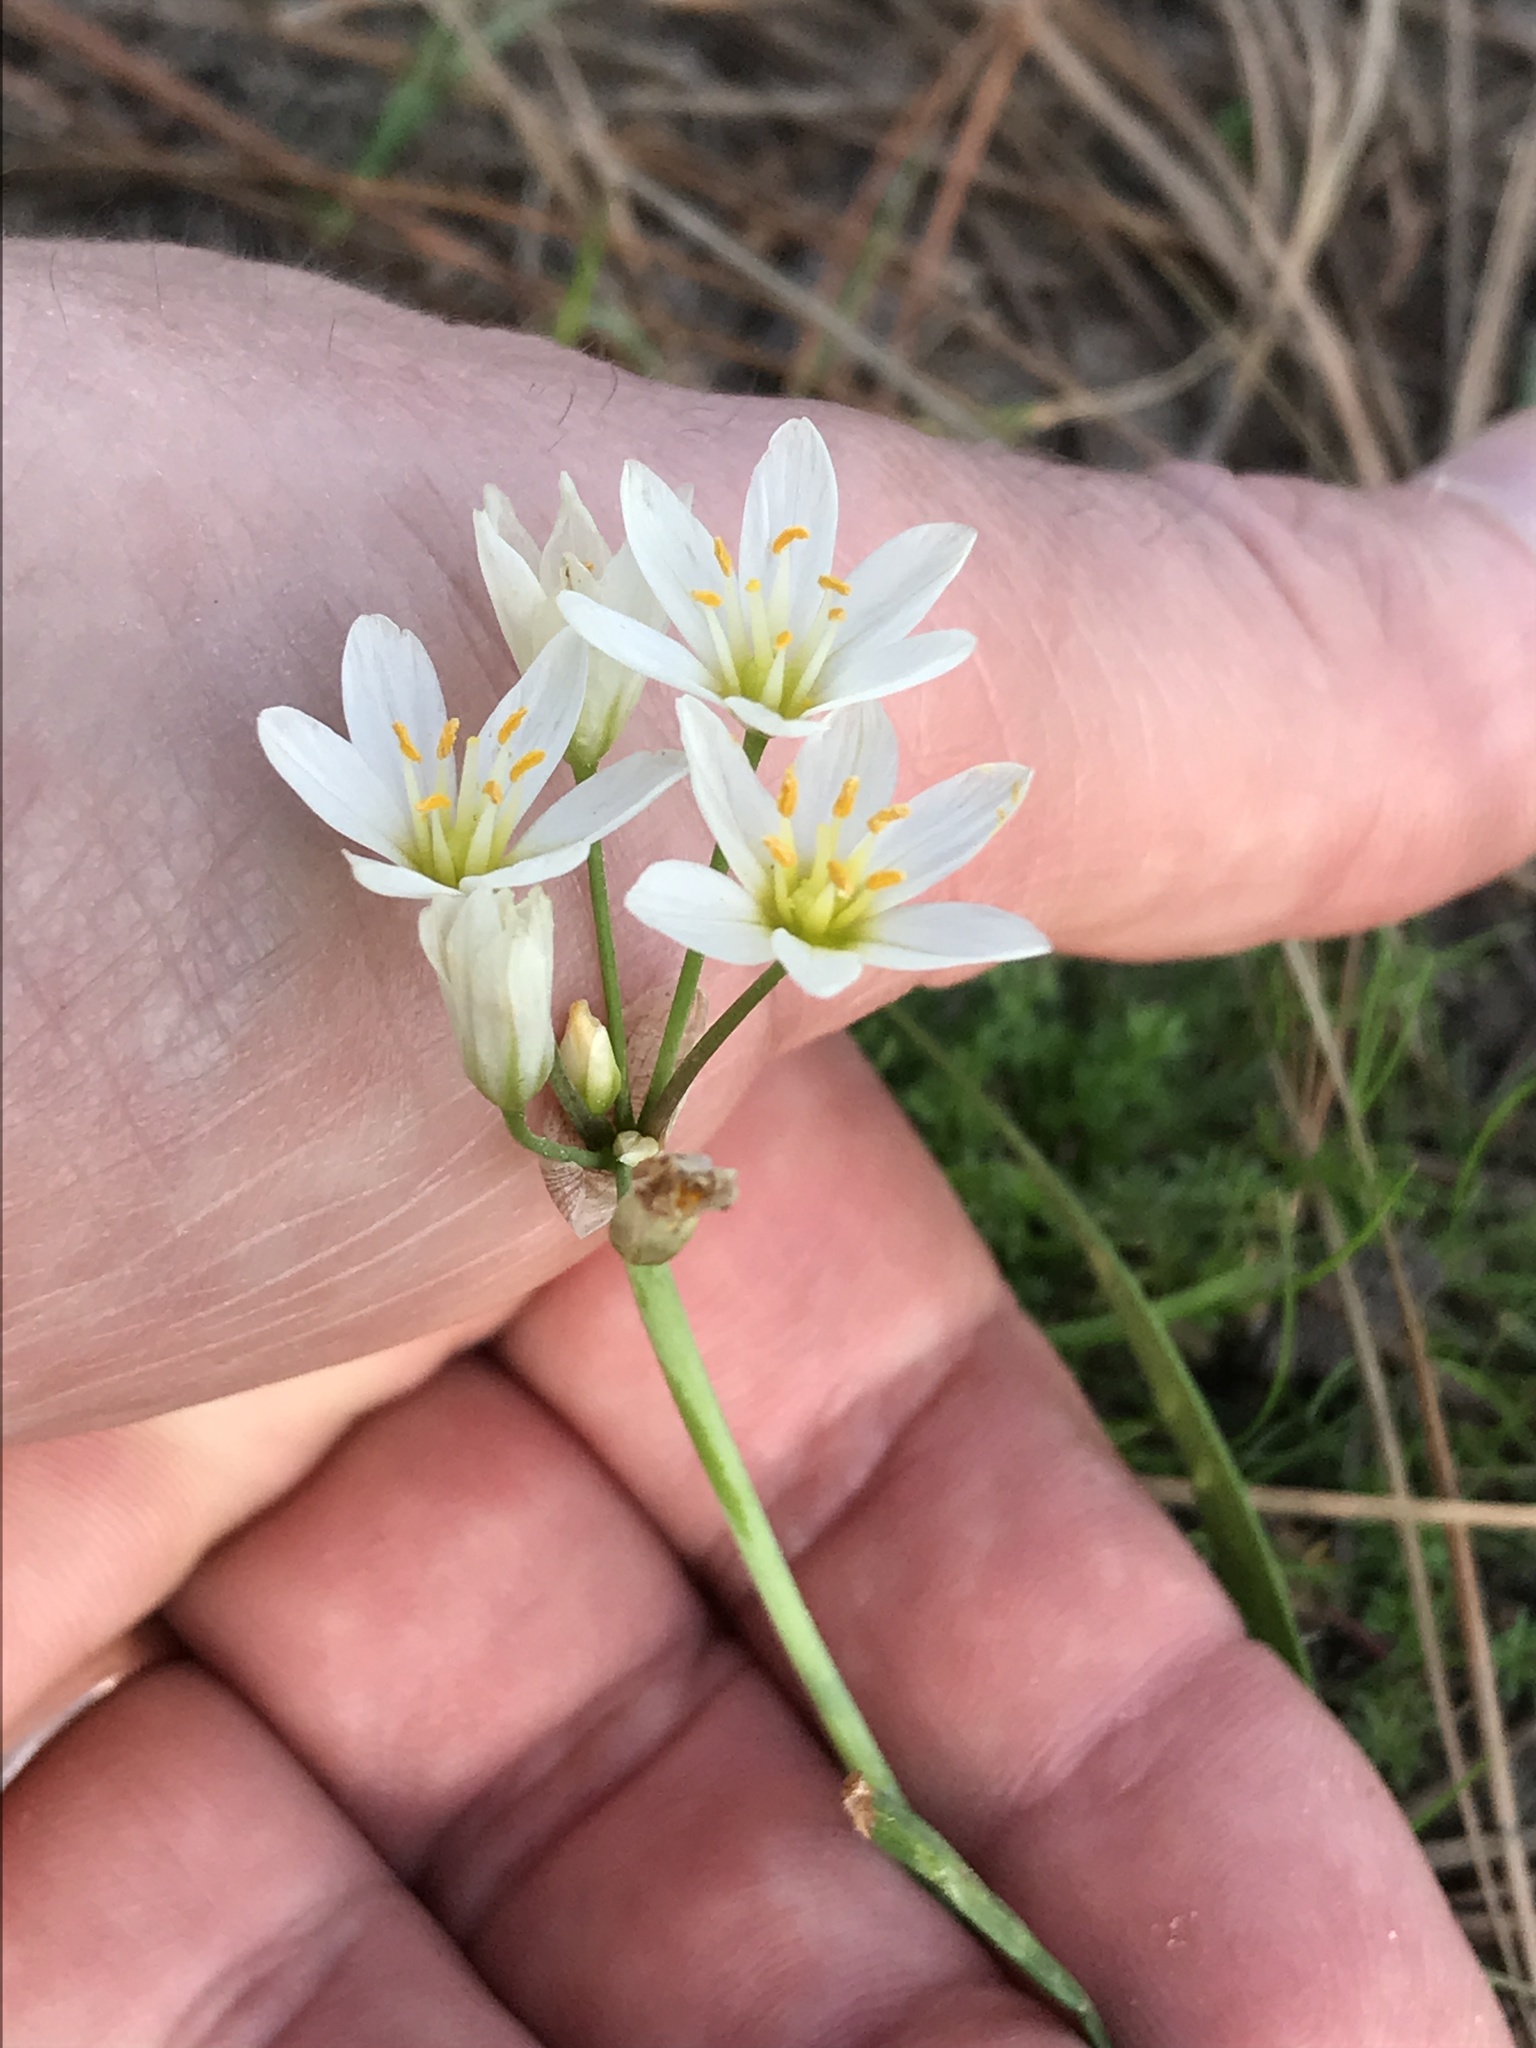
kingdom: Plantae
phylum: Tracheophyta
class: Liliopsida
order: Asparagales
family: Amaryllidaceae
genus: Nothoscordum
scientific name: Nothoscordum bivalve
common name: Crow-poison
